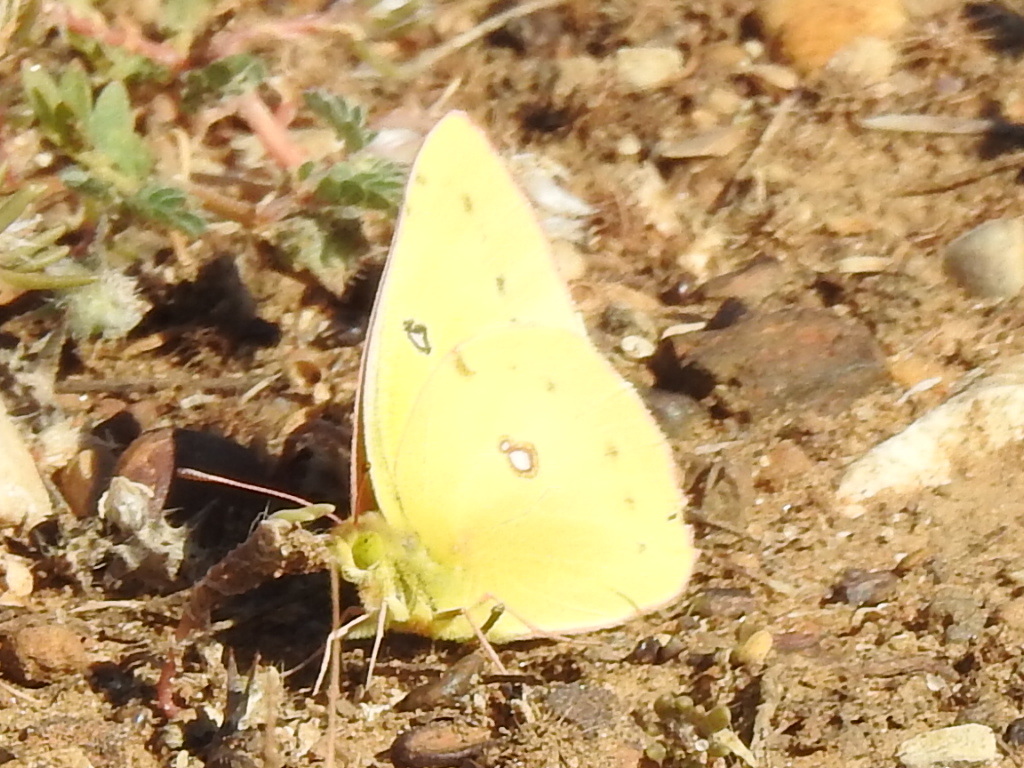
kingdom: Animalia
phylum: Arthropoda
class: Insecta
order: Lepidoptera
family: Pieridae
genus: Colias
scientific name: Colias eurytheme
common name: Alfalfa butterfly
